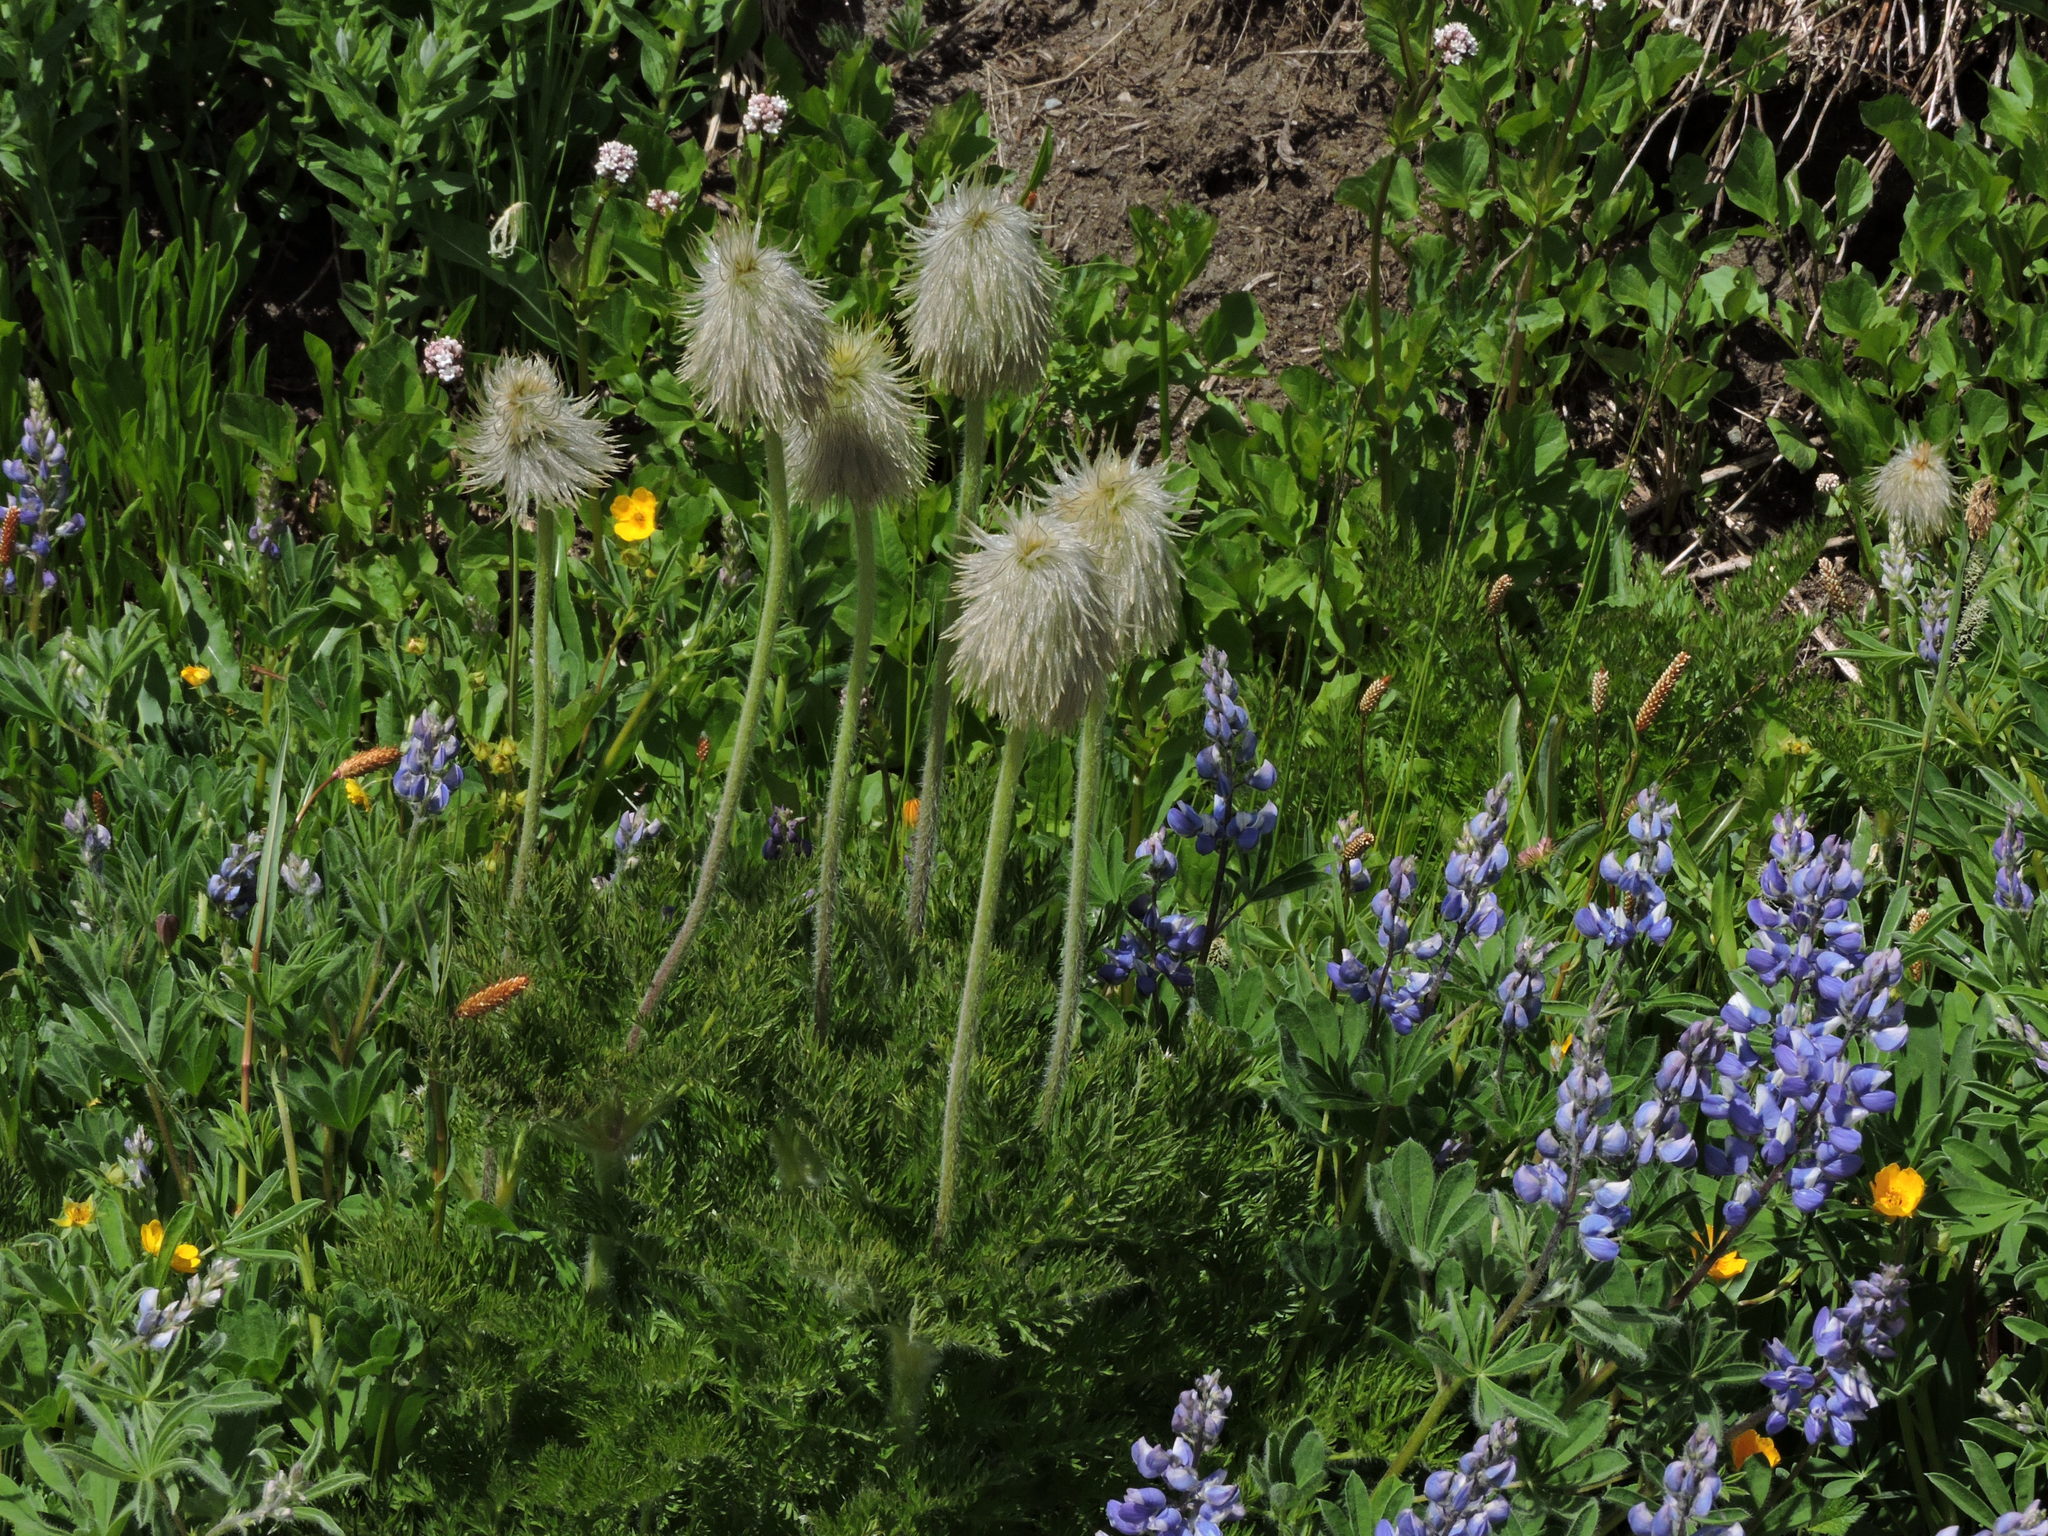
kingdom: Plantae
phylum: Tracheophyta
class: Magnoliopsida
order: Ranunculales
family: Ranunculaceae
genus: Pulsatilla
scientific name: Pulsatilla occidentalis
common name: Mountain pasqueflower
